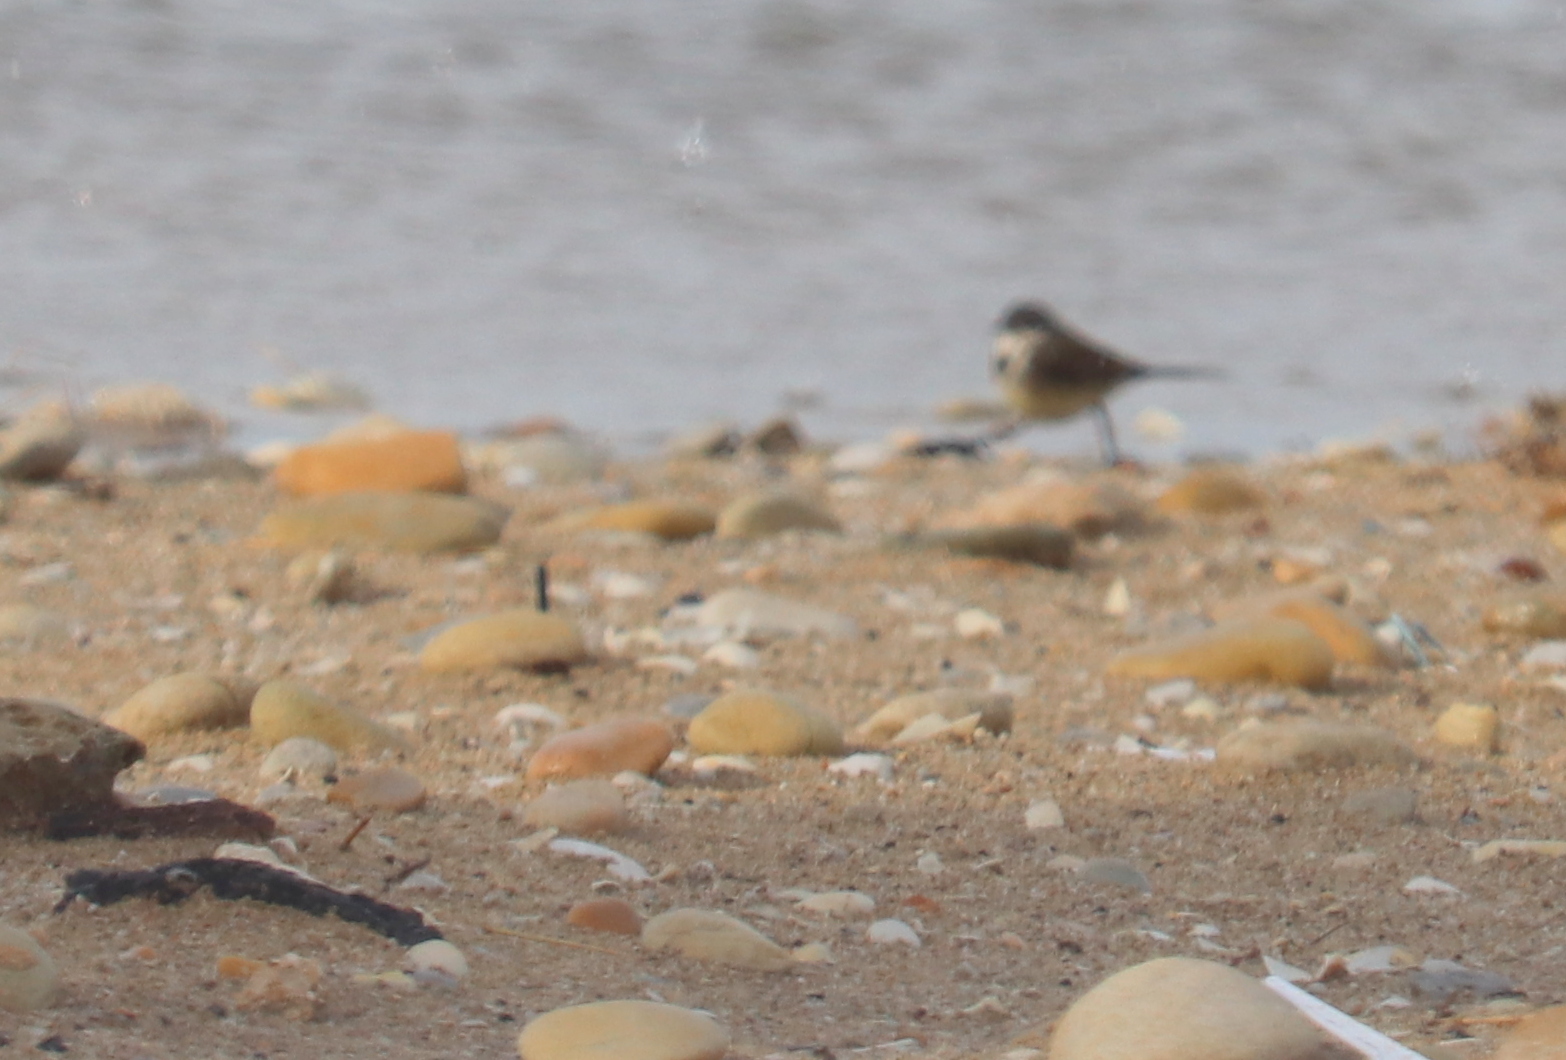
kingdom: Animalia
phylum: Chordata
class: Aves
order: Passeriformes
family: Motacillidae
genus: Motacilla
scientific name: Motacilla capensis
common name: Cape wagtail
